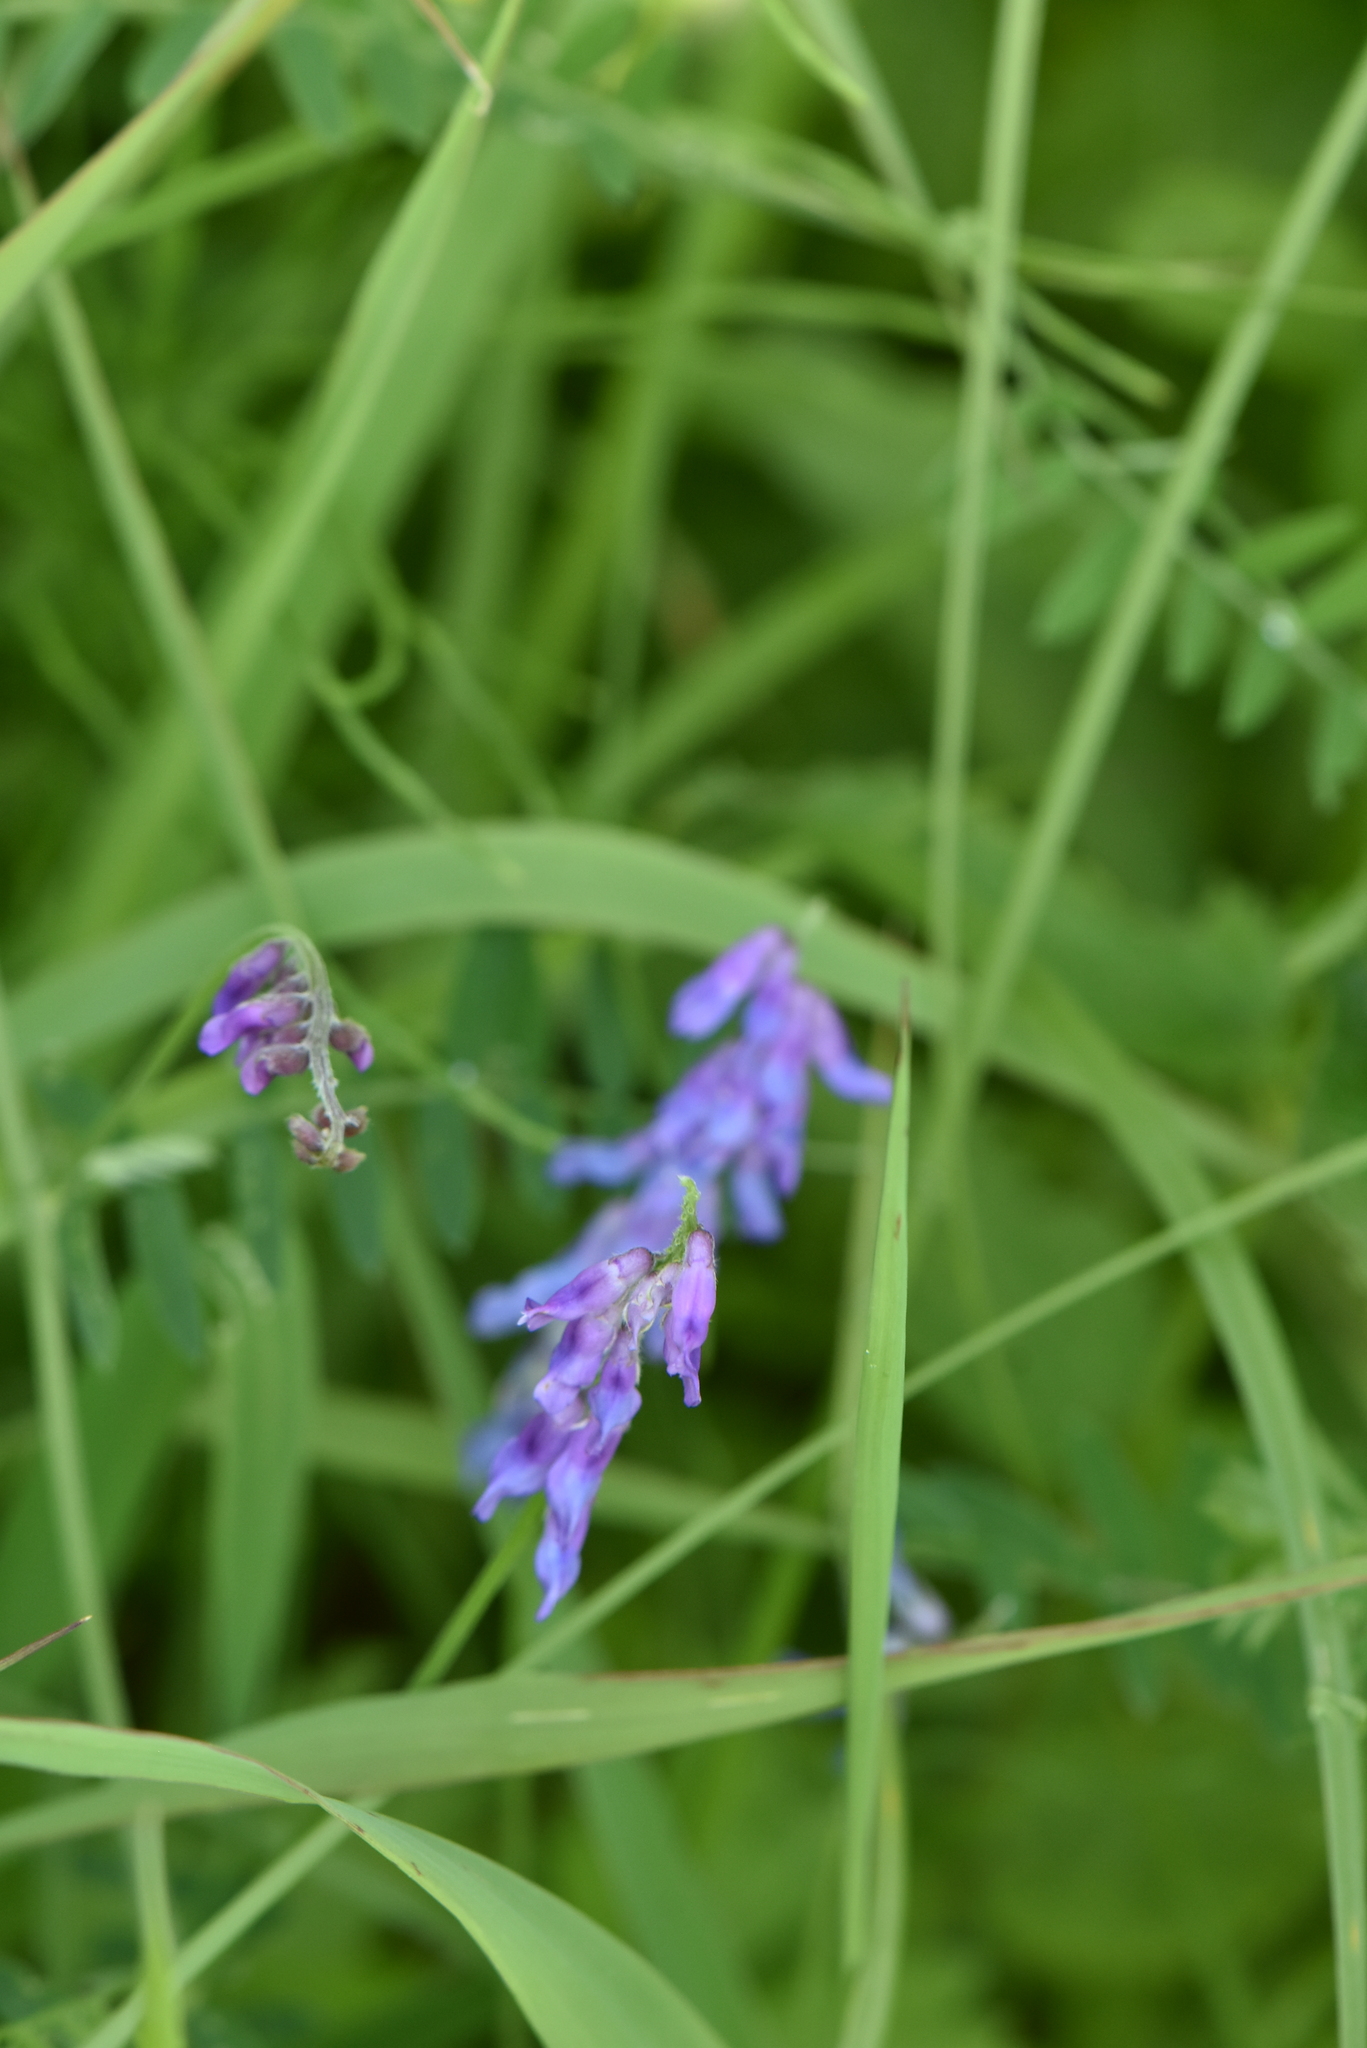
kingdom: Plantae
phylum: Tracheophyta
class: Magnoliopsida
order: Fabales
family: Fabaceae
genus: Vicia
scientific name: Vicia cracca
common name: Bird vetch
